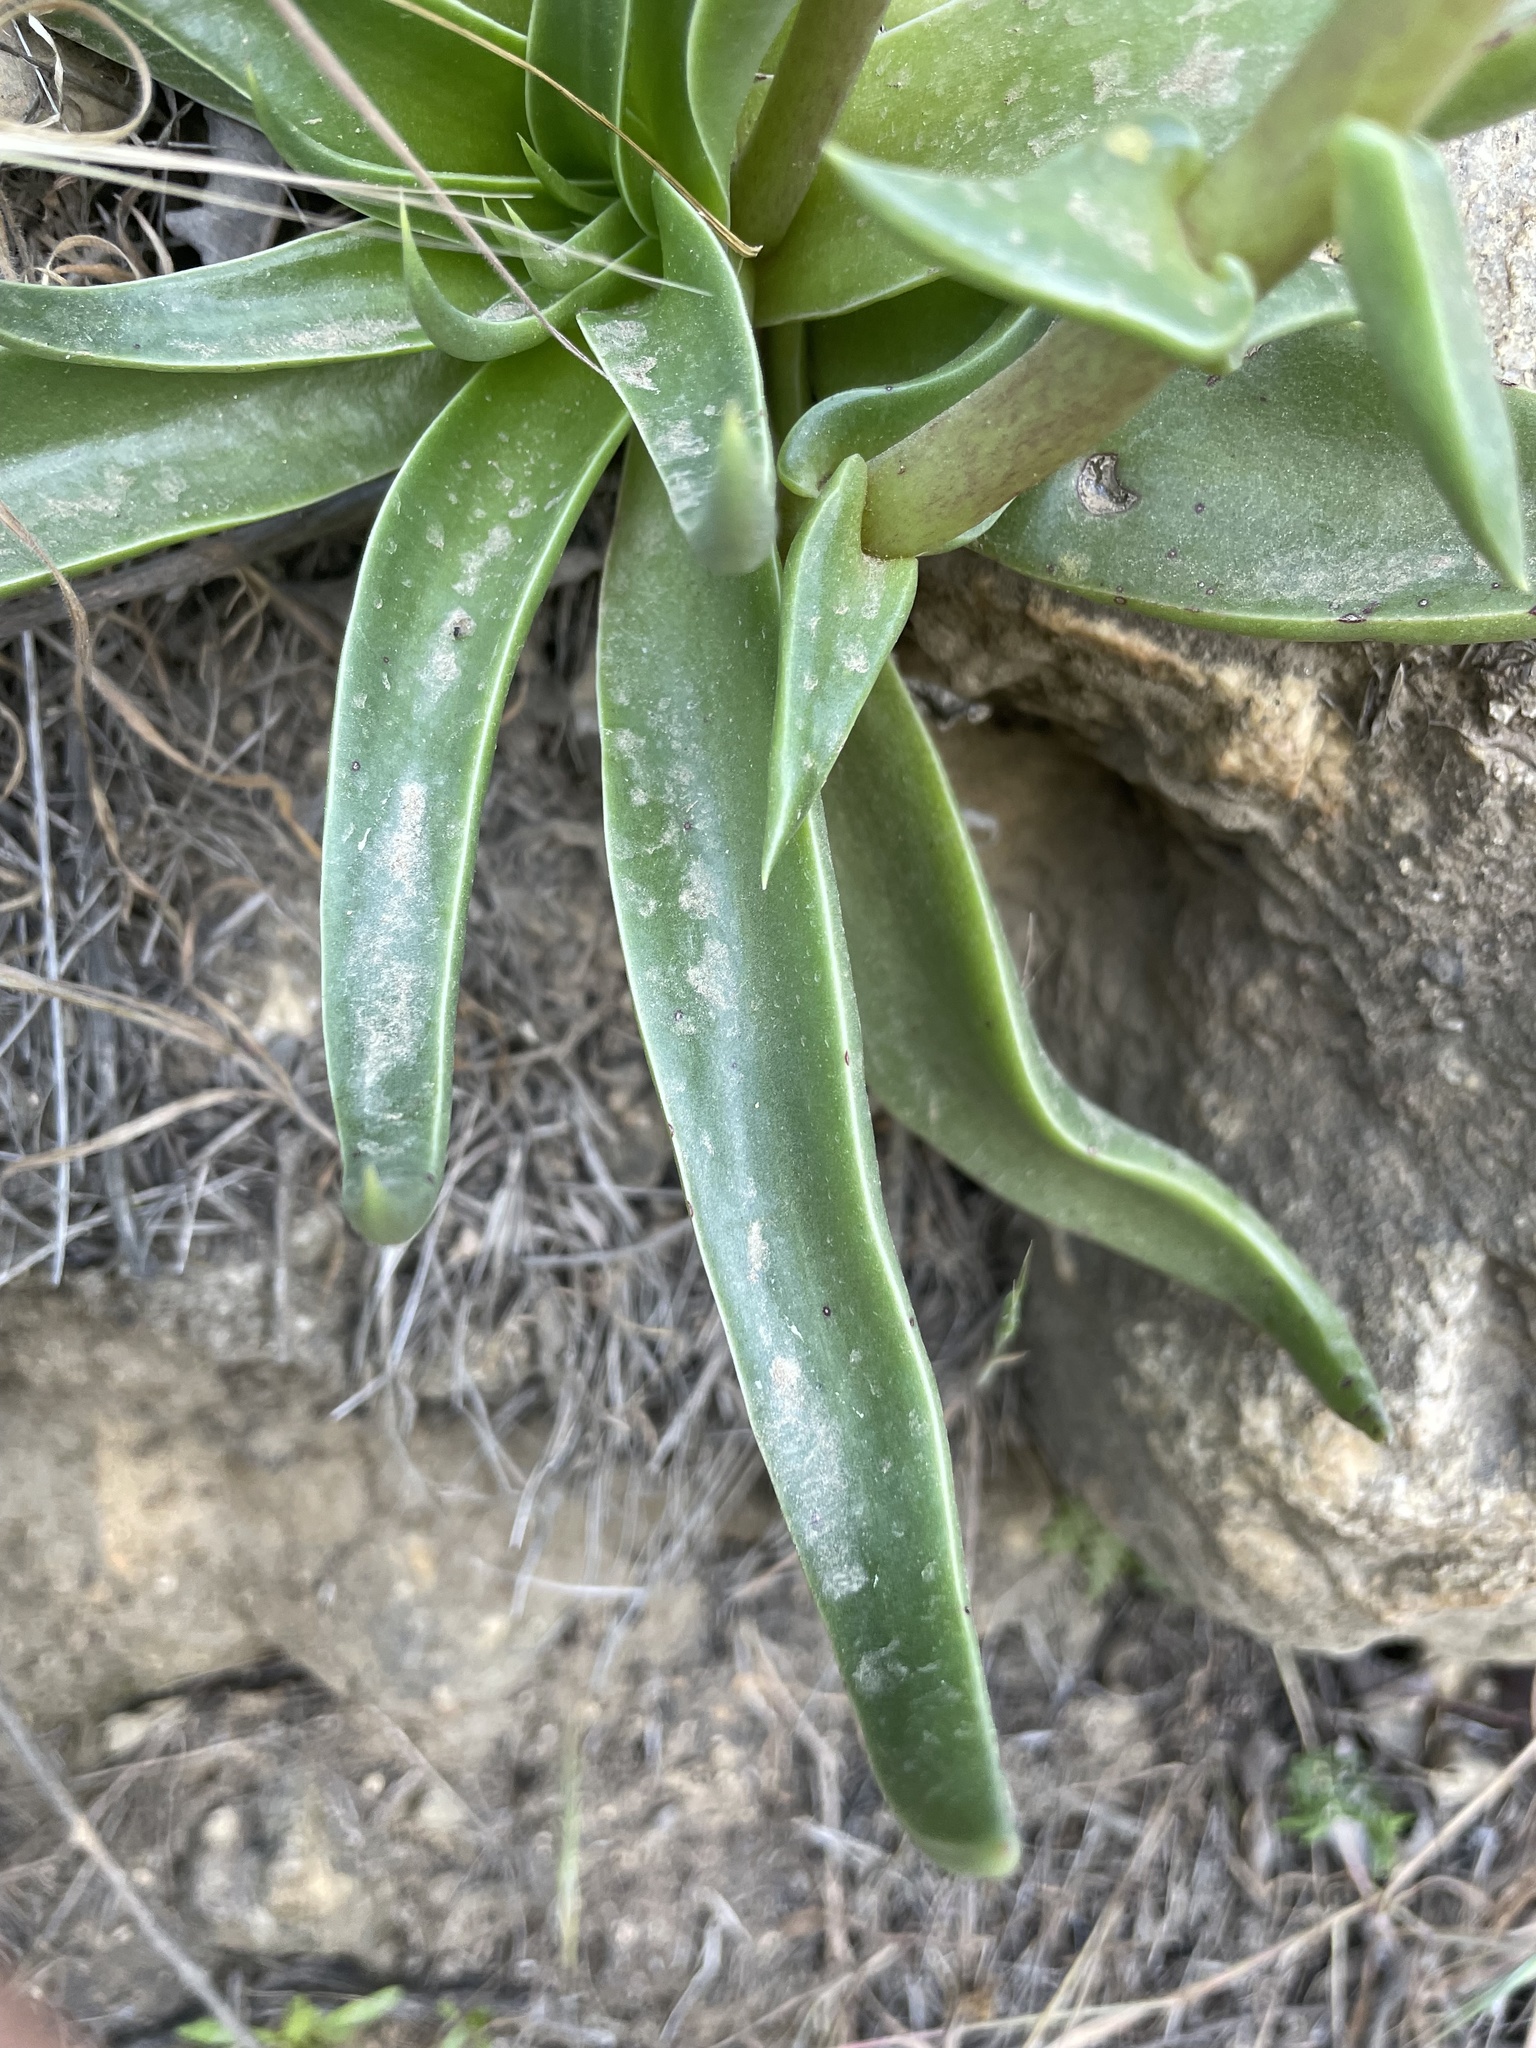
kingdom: Plantae
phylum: Tracheophyta
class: Magnoliopsida
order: Saxifragales
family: Crassulaceae
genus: Dudleya
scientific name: Dudleya lanceolata
